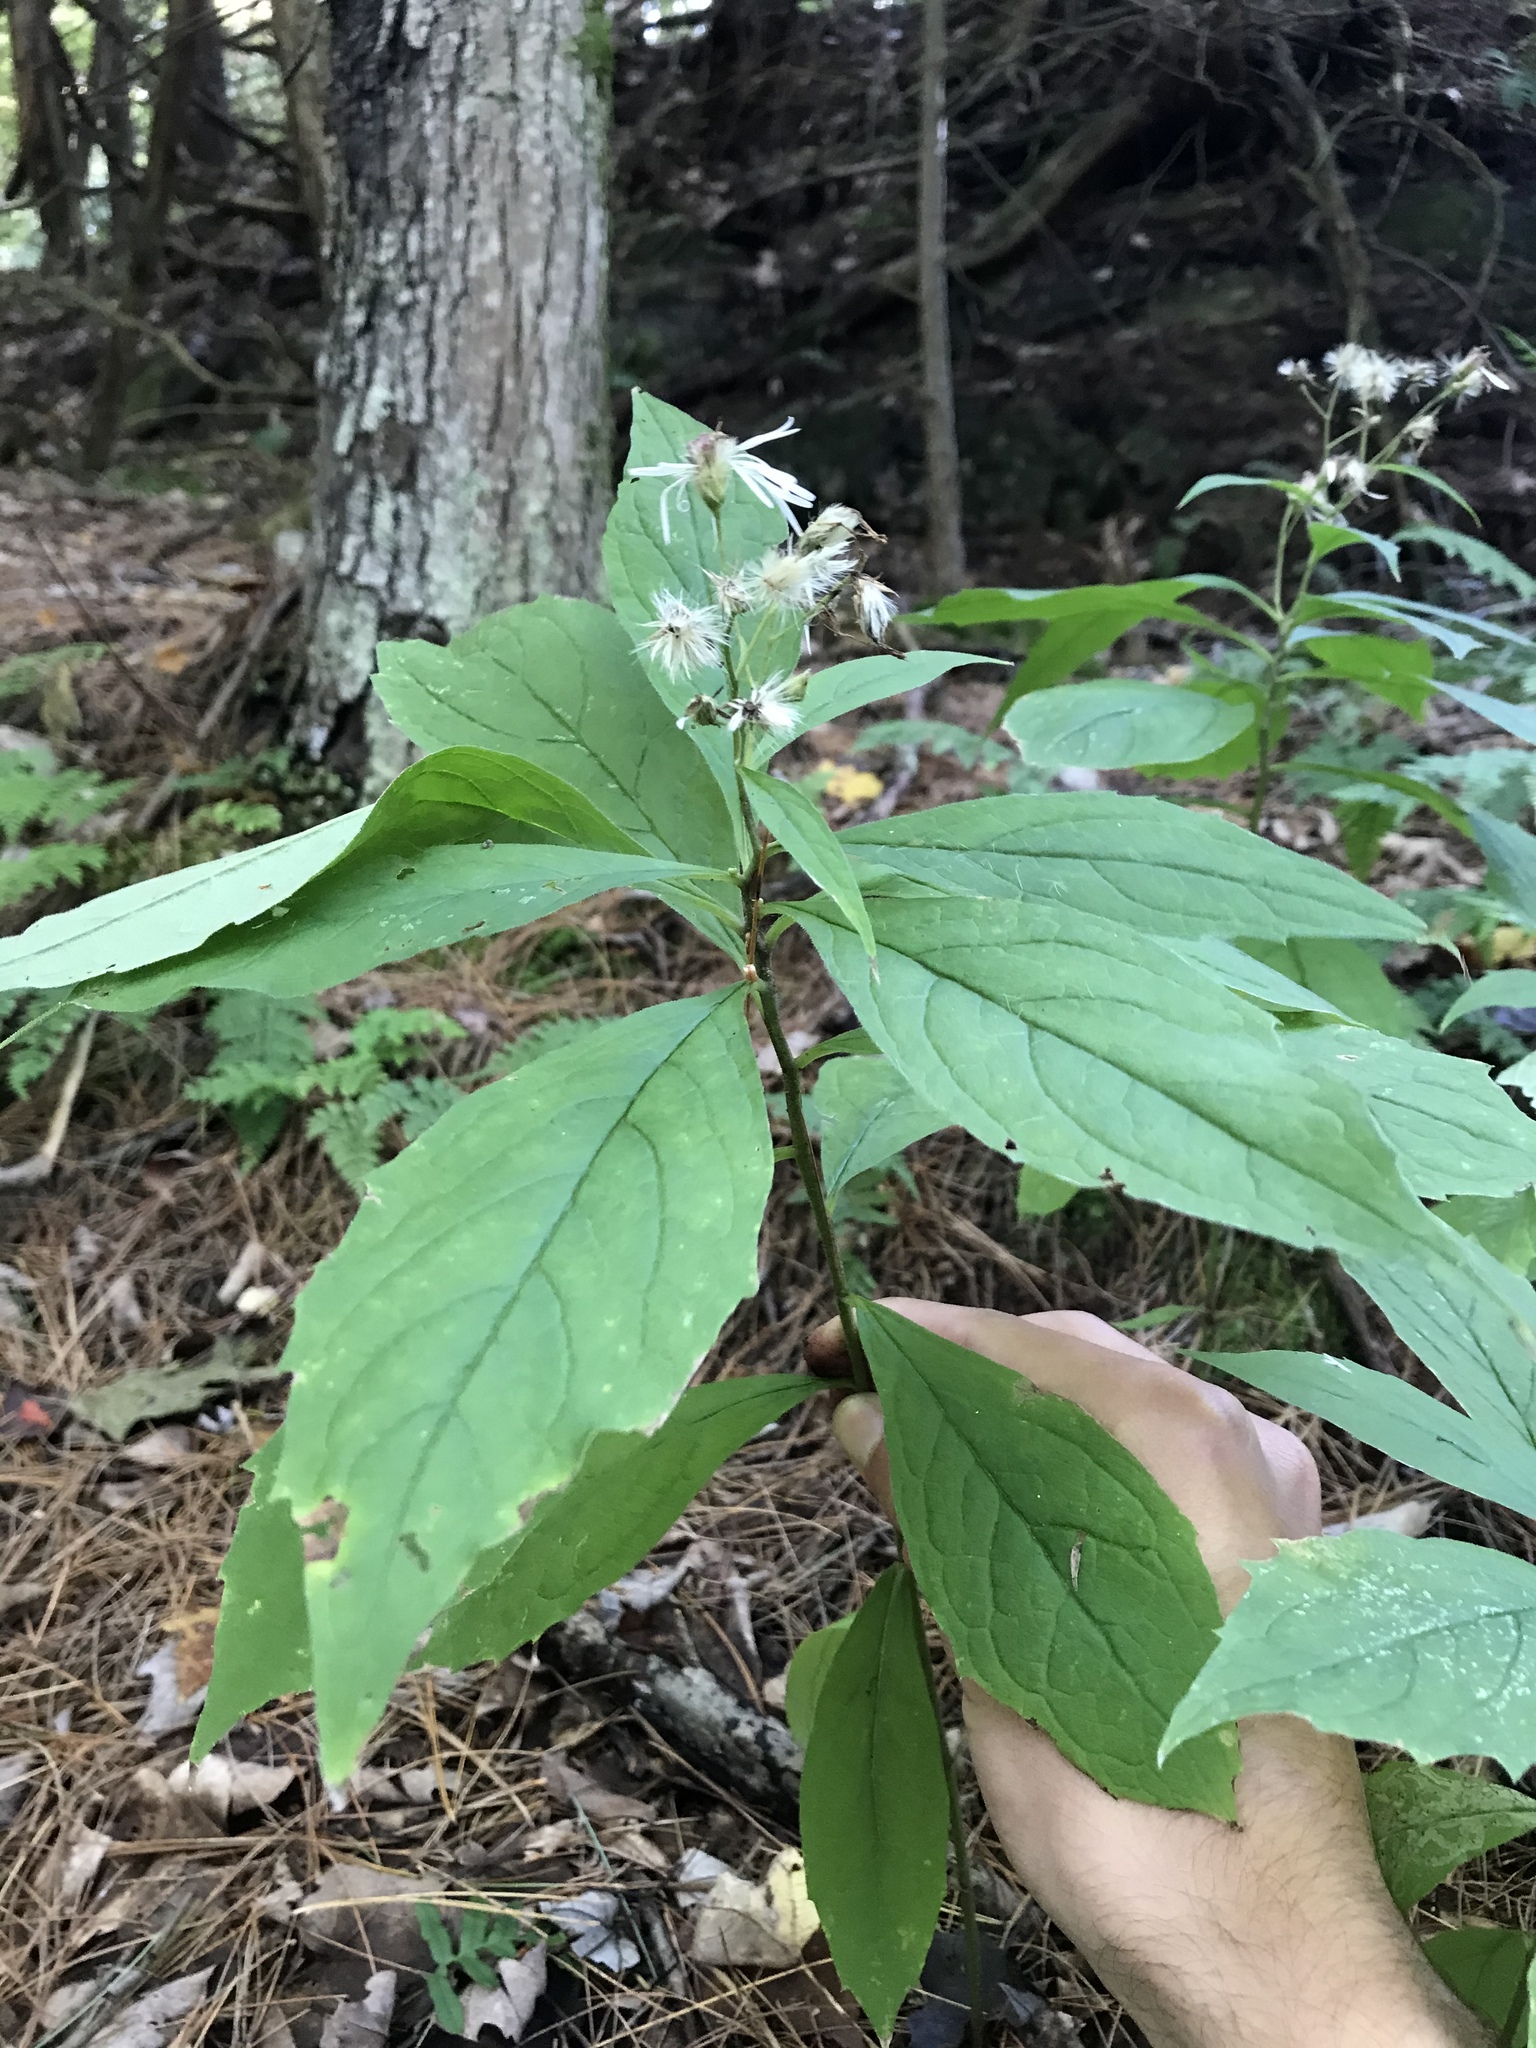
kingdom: Plantae
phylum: Tracheophyta
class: Magnoliopsida
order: Asterales
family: Asteraceae
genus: Oclemena
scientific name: Oclemena acuminata
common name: Mountain aster
